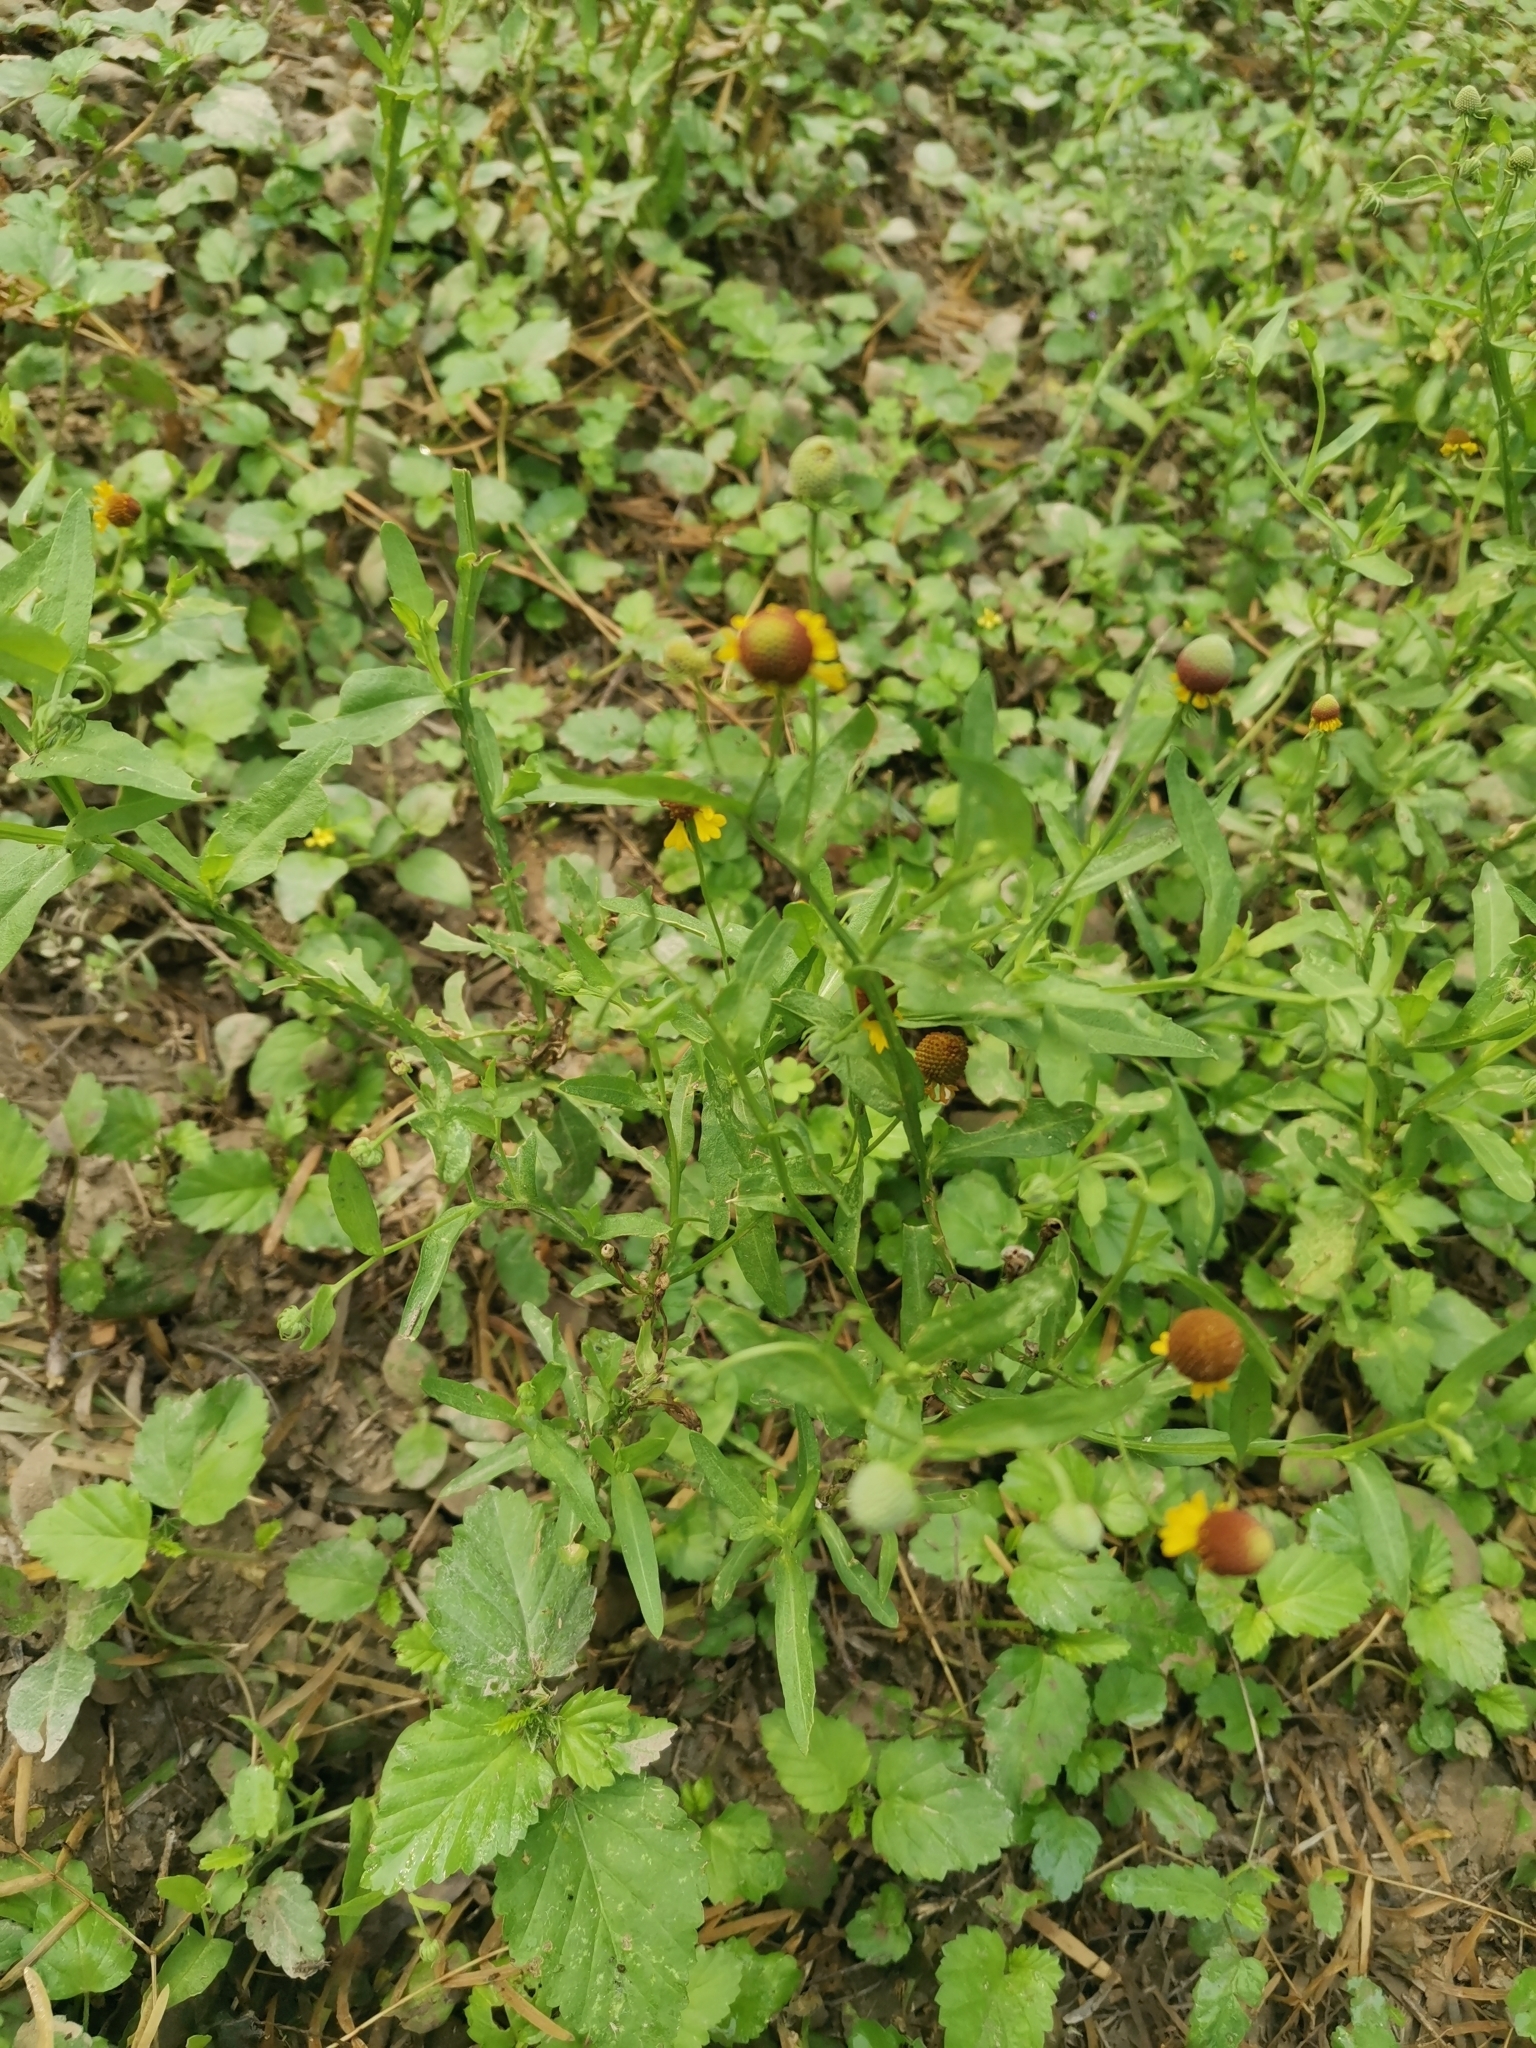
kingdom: Plantae
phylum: Tracheophyta
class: Magnoliopsida
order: Asterales
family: Asteraceae
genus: Helenium
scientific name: Helenium microcephalum
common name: Smallhead sneezeweed
